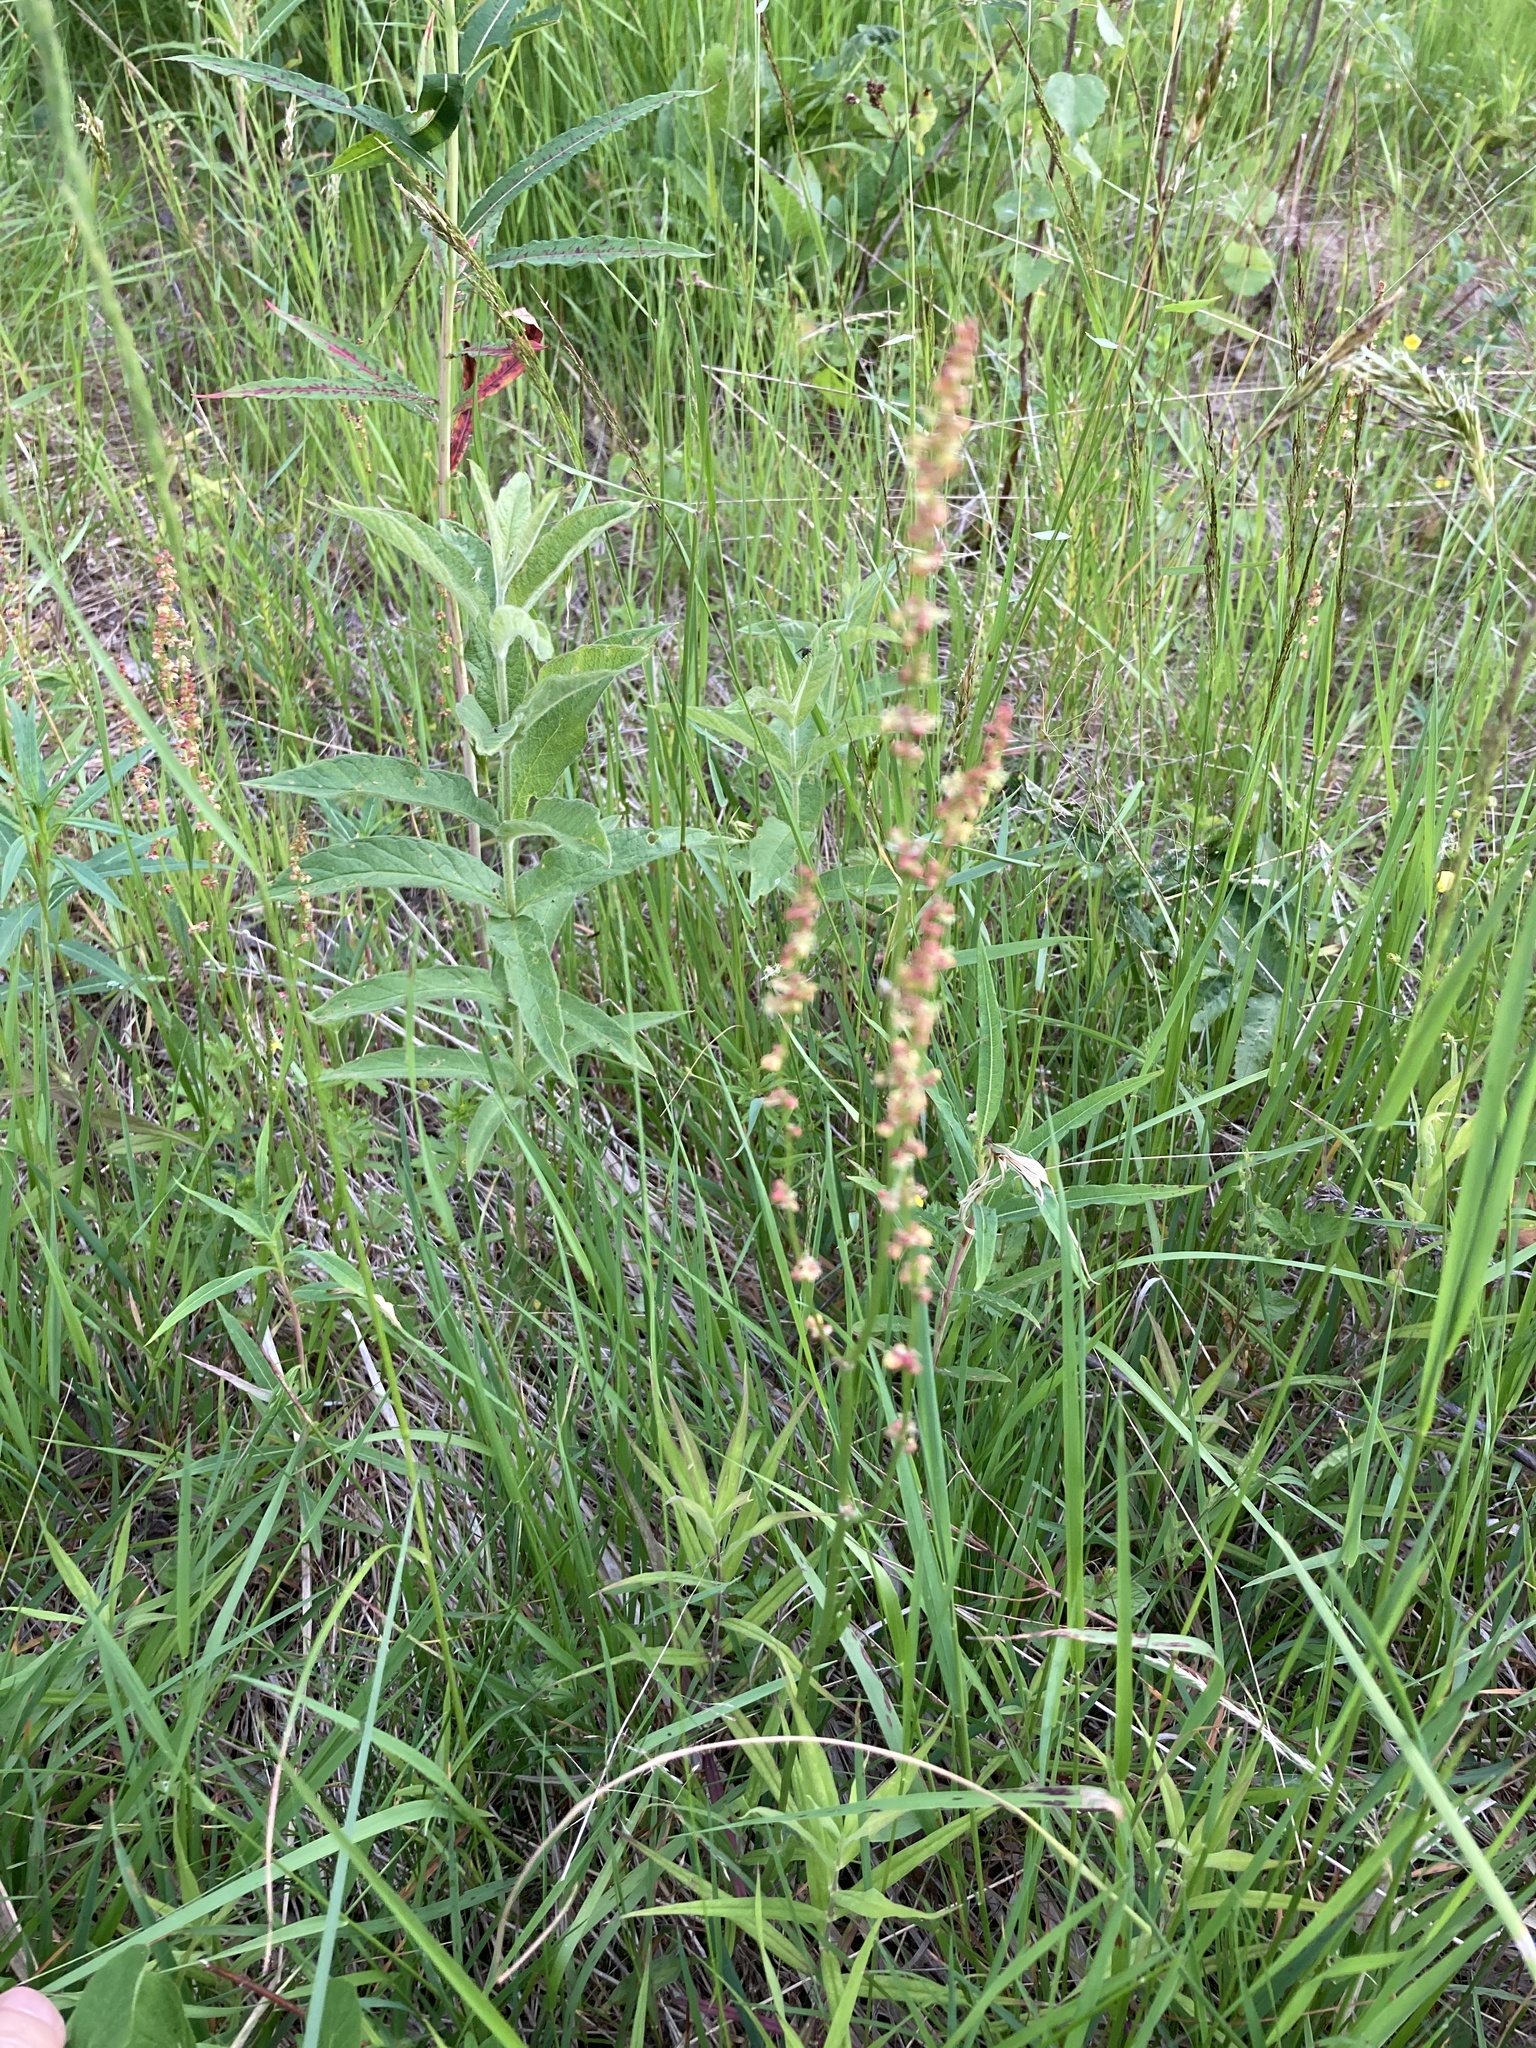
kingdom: Plantae
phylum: Tracheophyta
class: Magnoliopsida
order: Caryophyllales
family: Polygonaceae
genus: Rumex
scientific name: Rumex acetosella
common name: Common sheep sorrel
